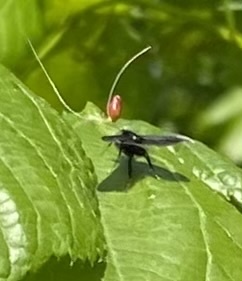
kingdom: Animalia
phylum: Arthropoda
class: Insecta
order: Lepidoptera
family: Adelidae
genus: Adela
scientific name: Adela viridella
